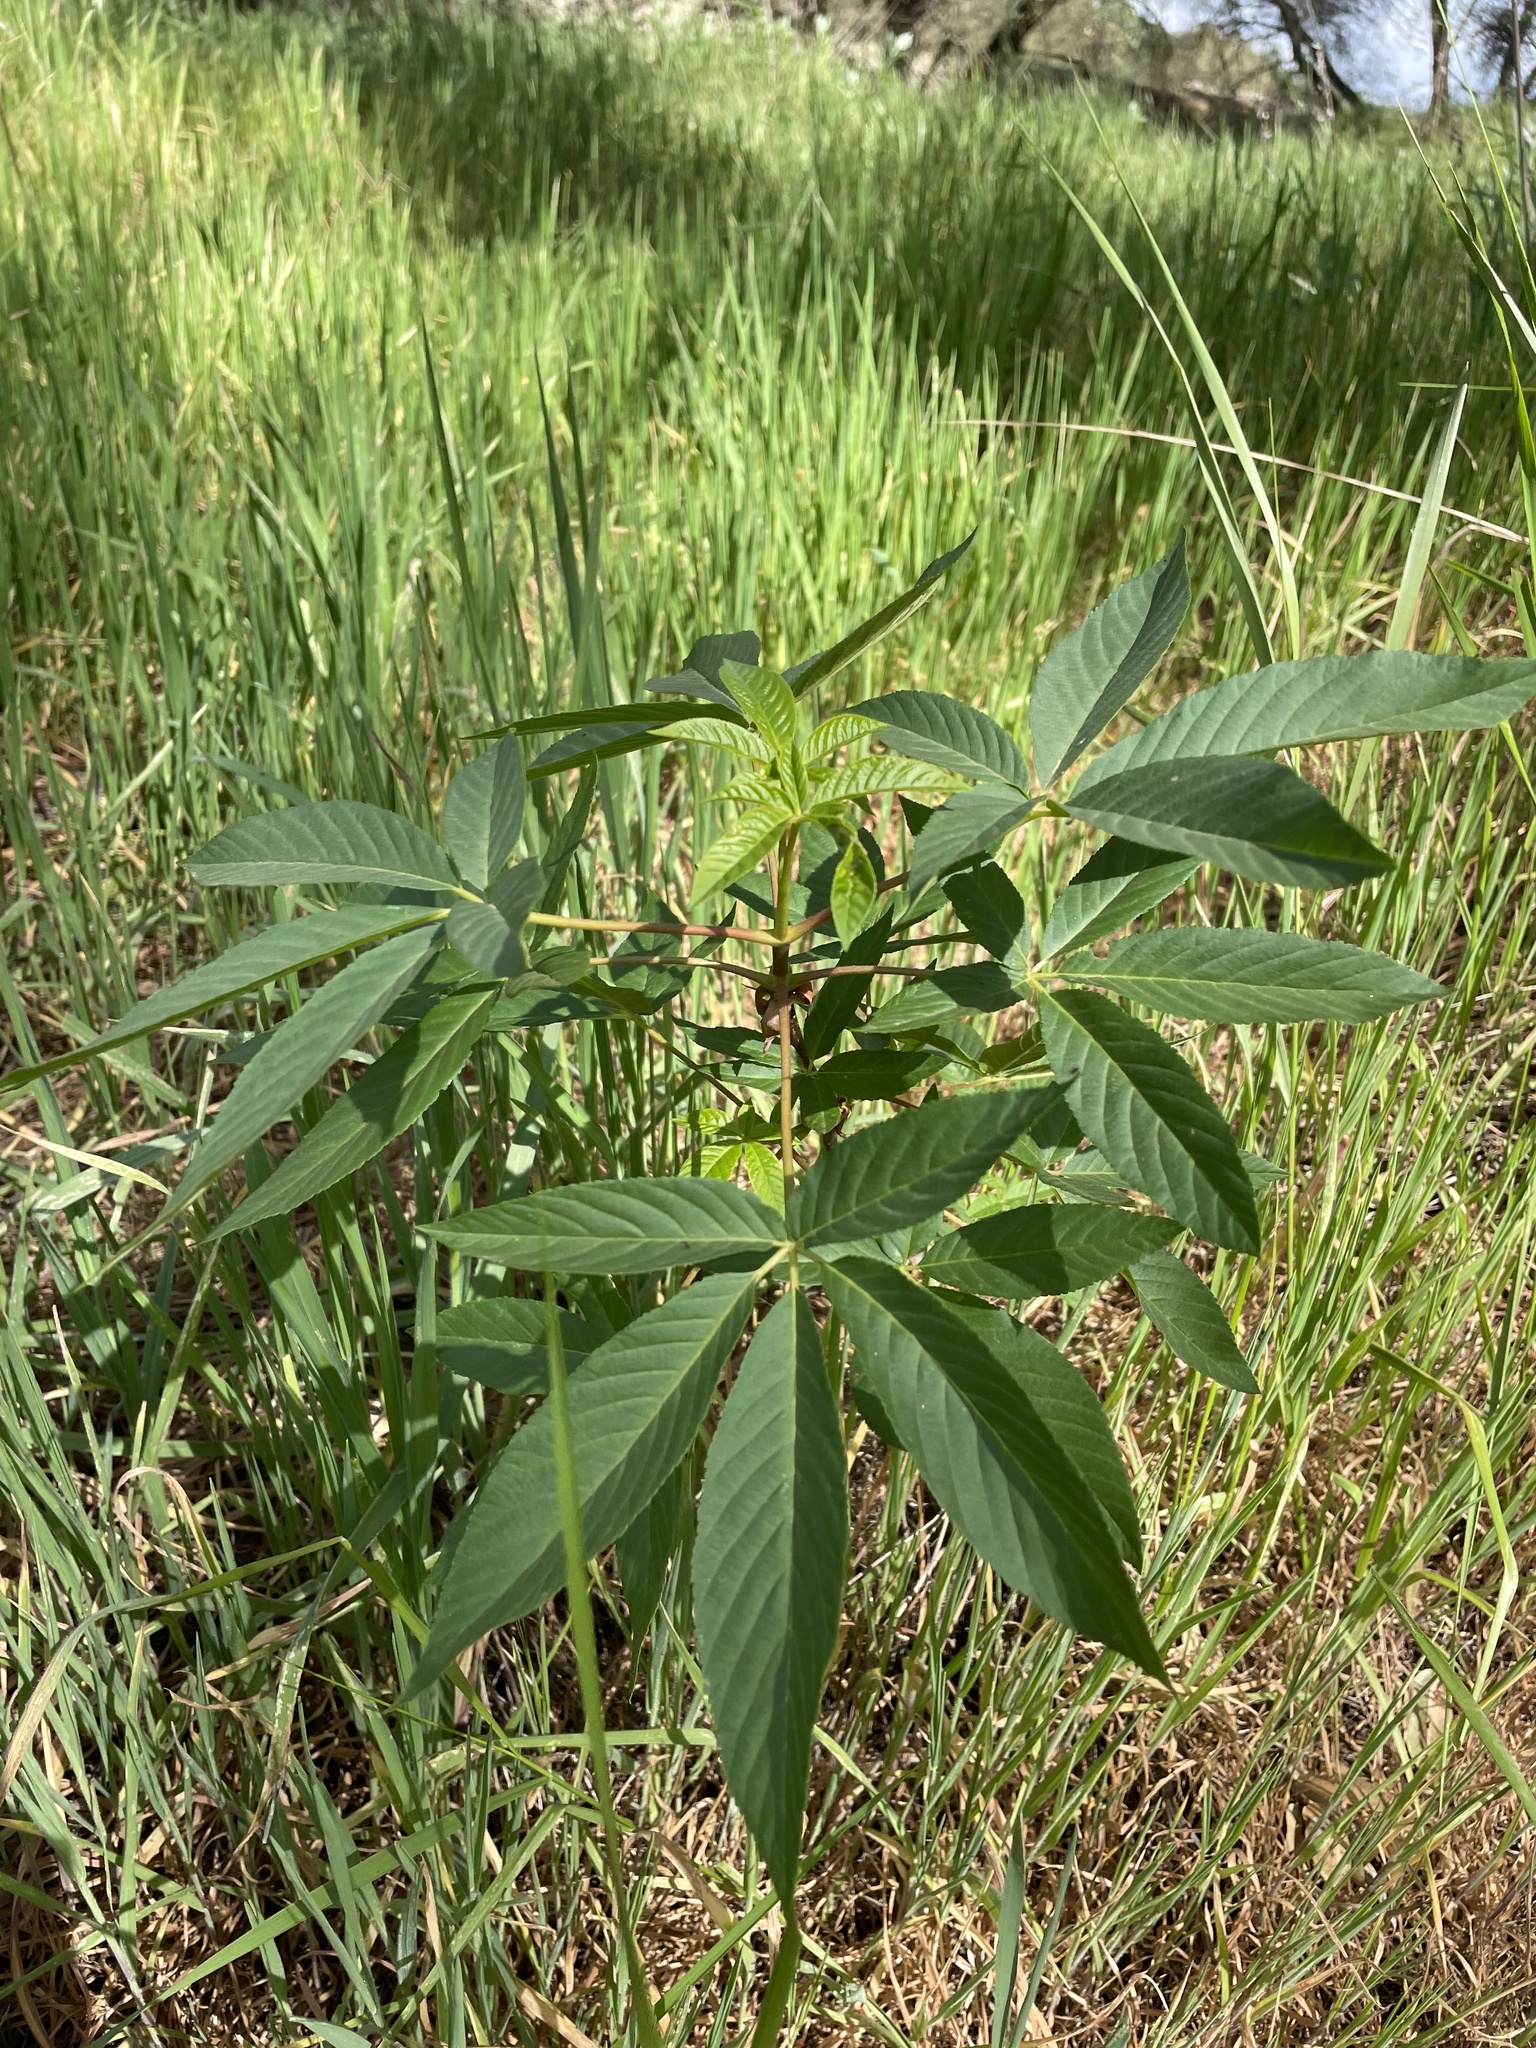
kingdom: Plantae
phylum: Tracheophyta
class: Magnoliopsida
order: Sapindales
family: Sapindaceae
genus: Aesculus
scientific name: Aesculus californica
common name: California buckeye
